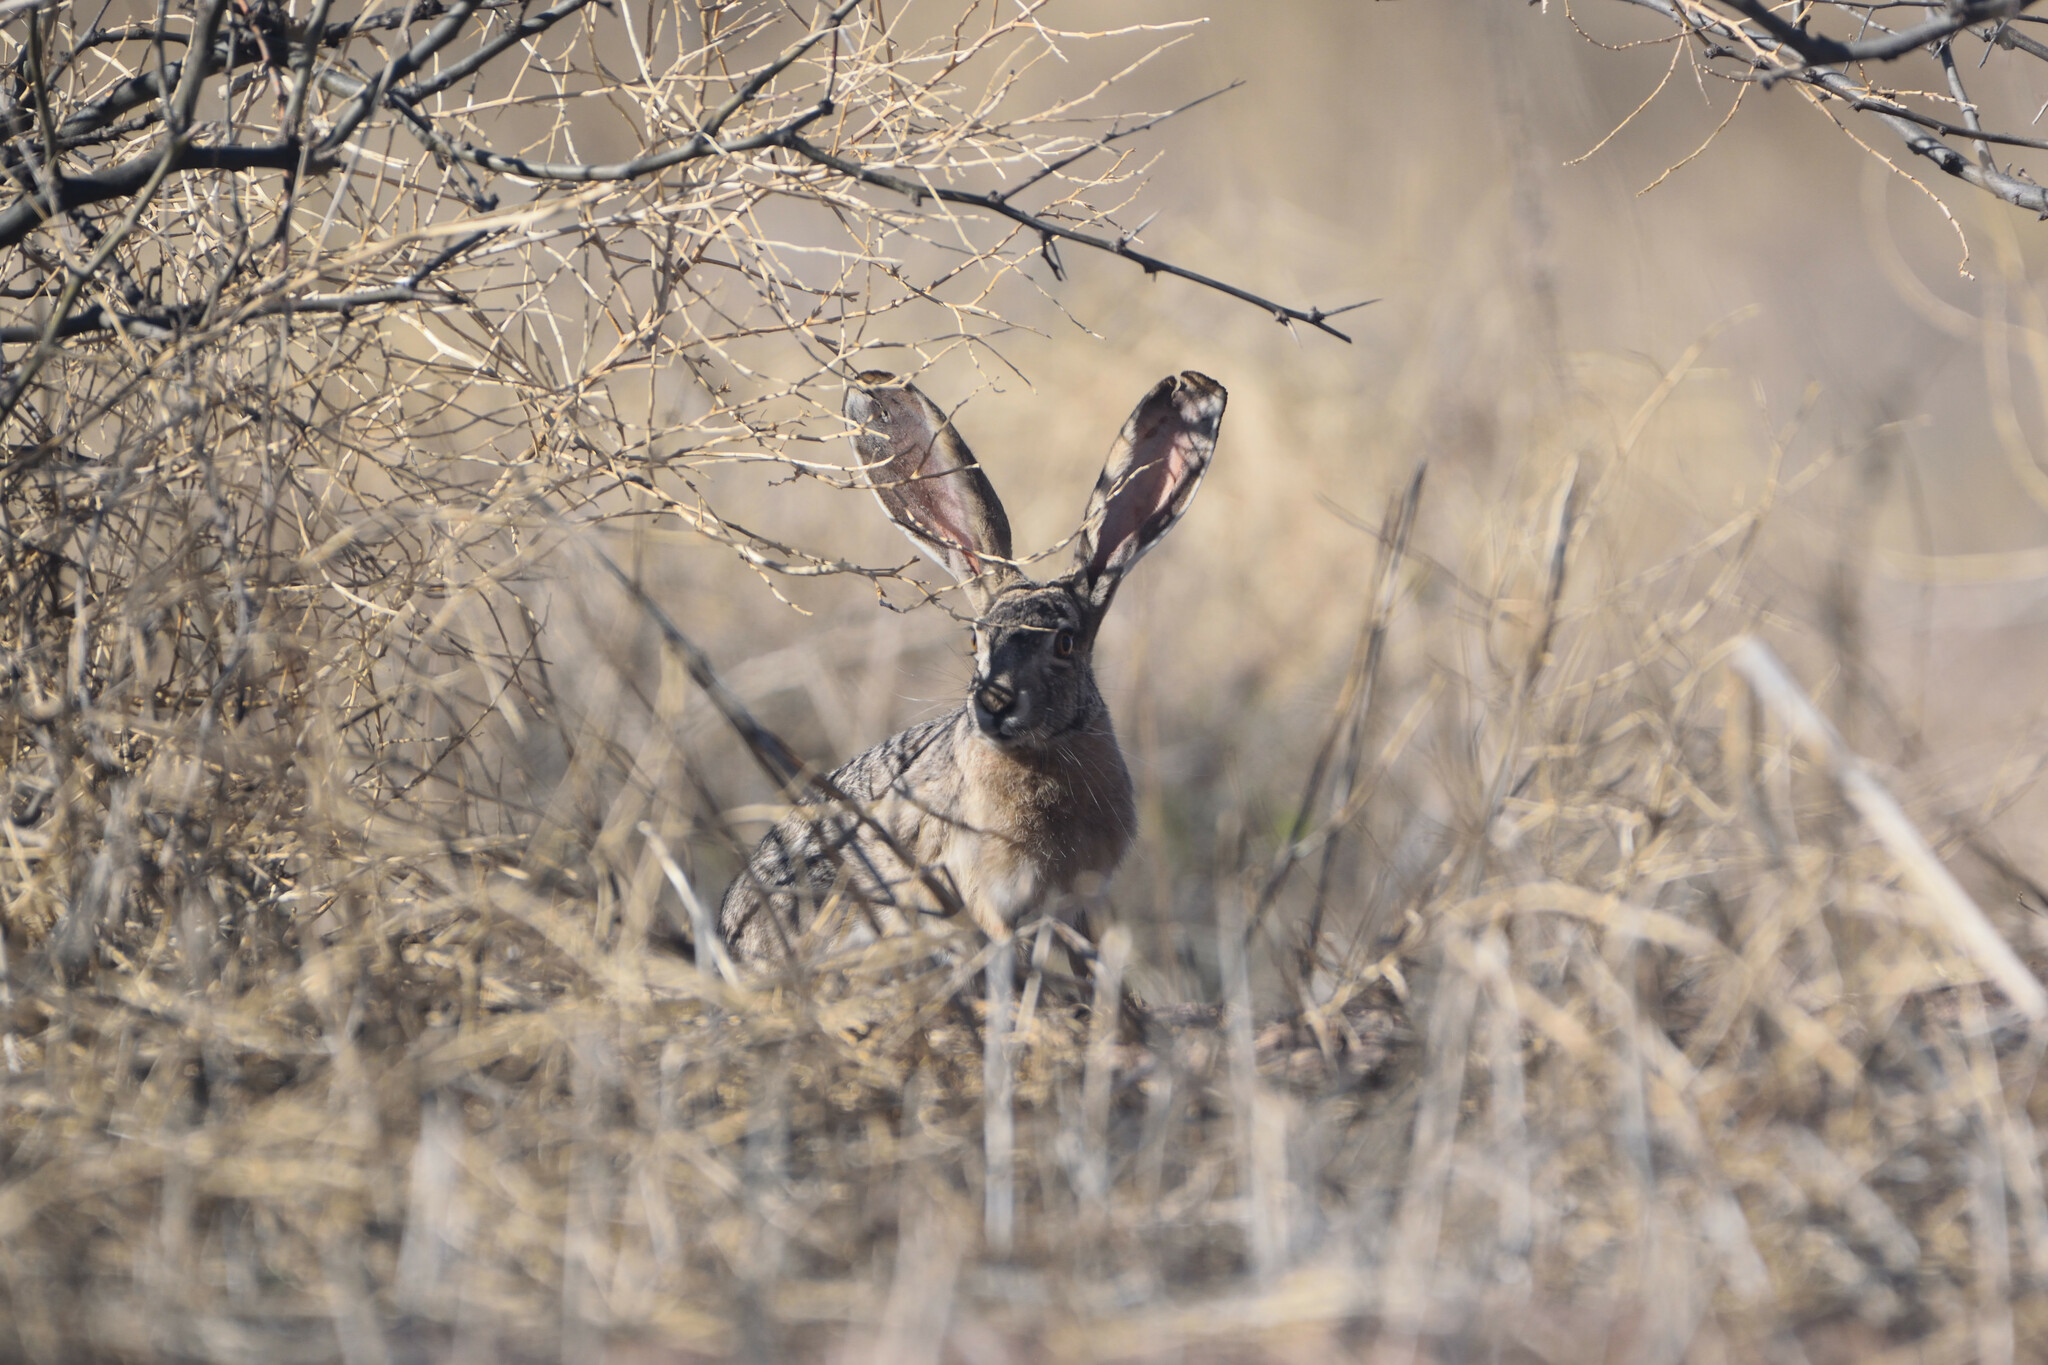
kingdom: Animalia
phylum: Chordata
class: Mammalia
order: Lagomorpha
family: Leporidae
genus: Lepus
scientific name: Lepus californicus
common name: Black-tailed jackrabbit
